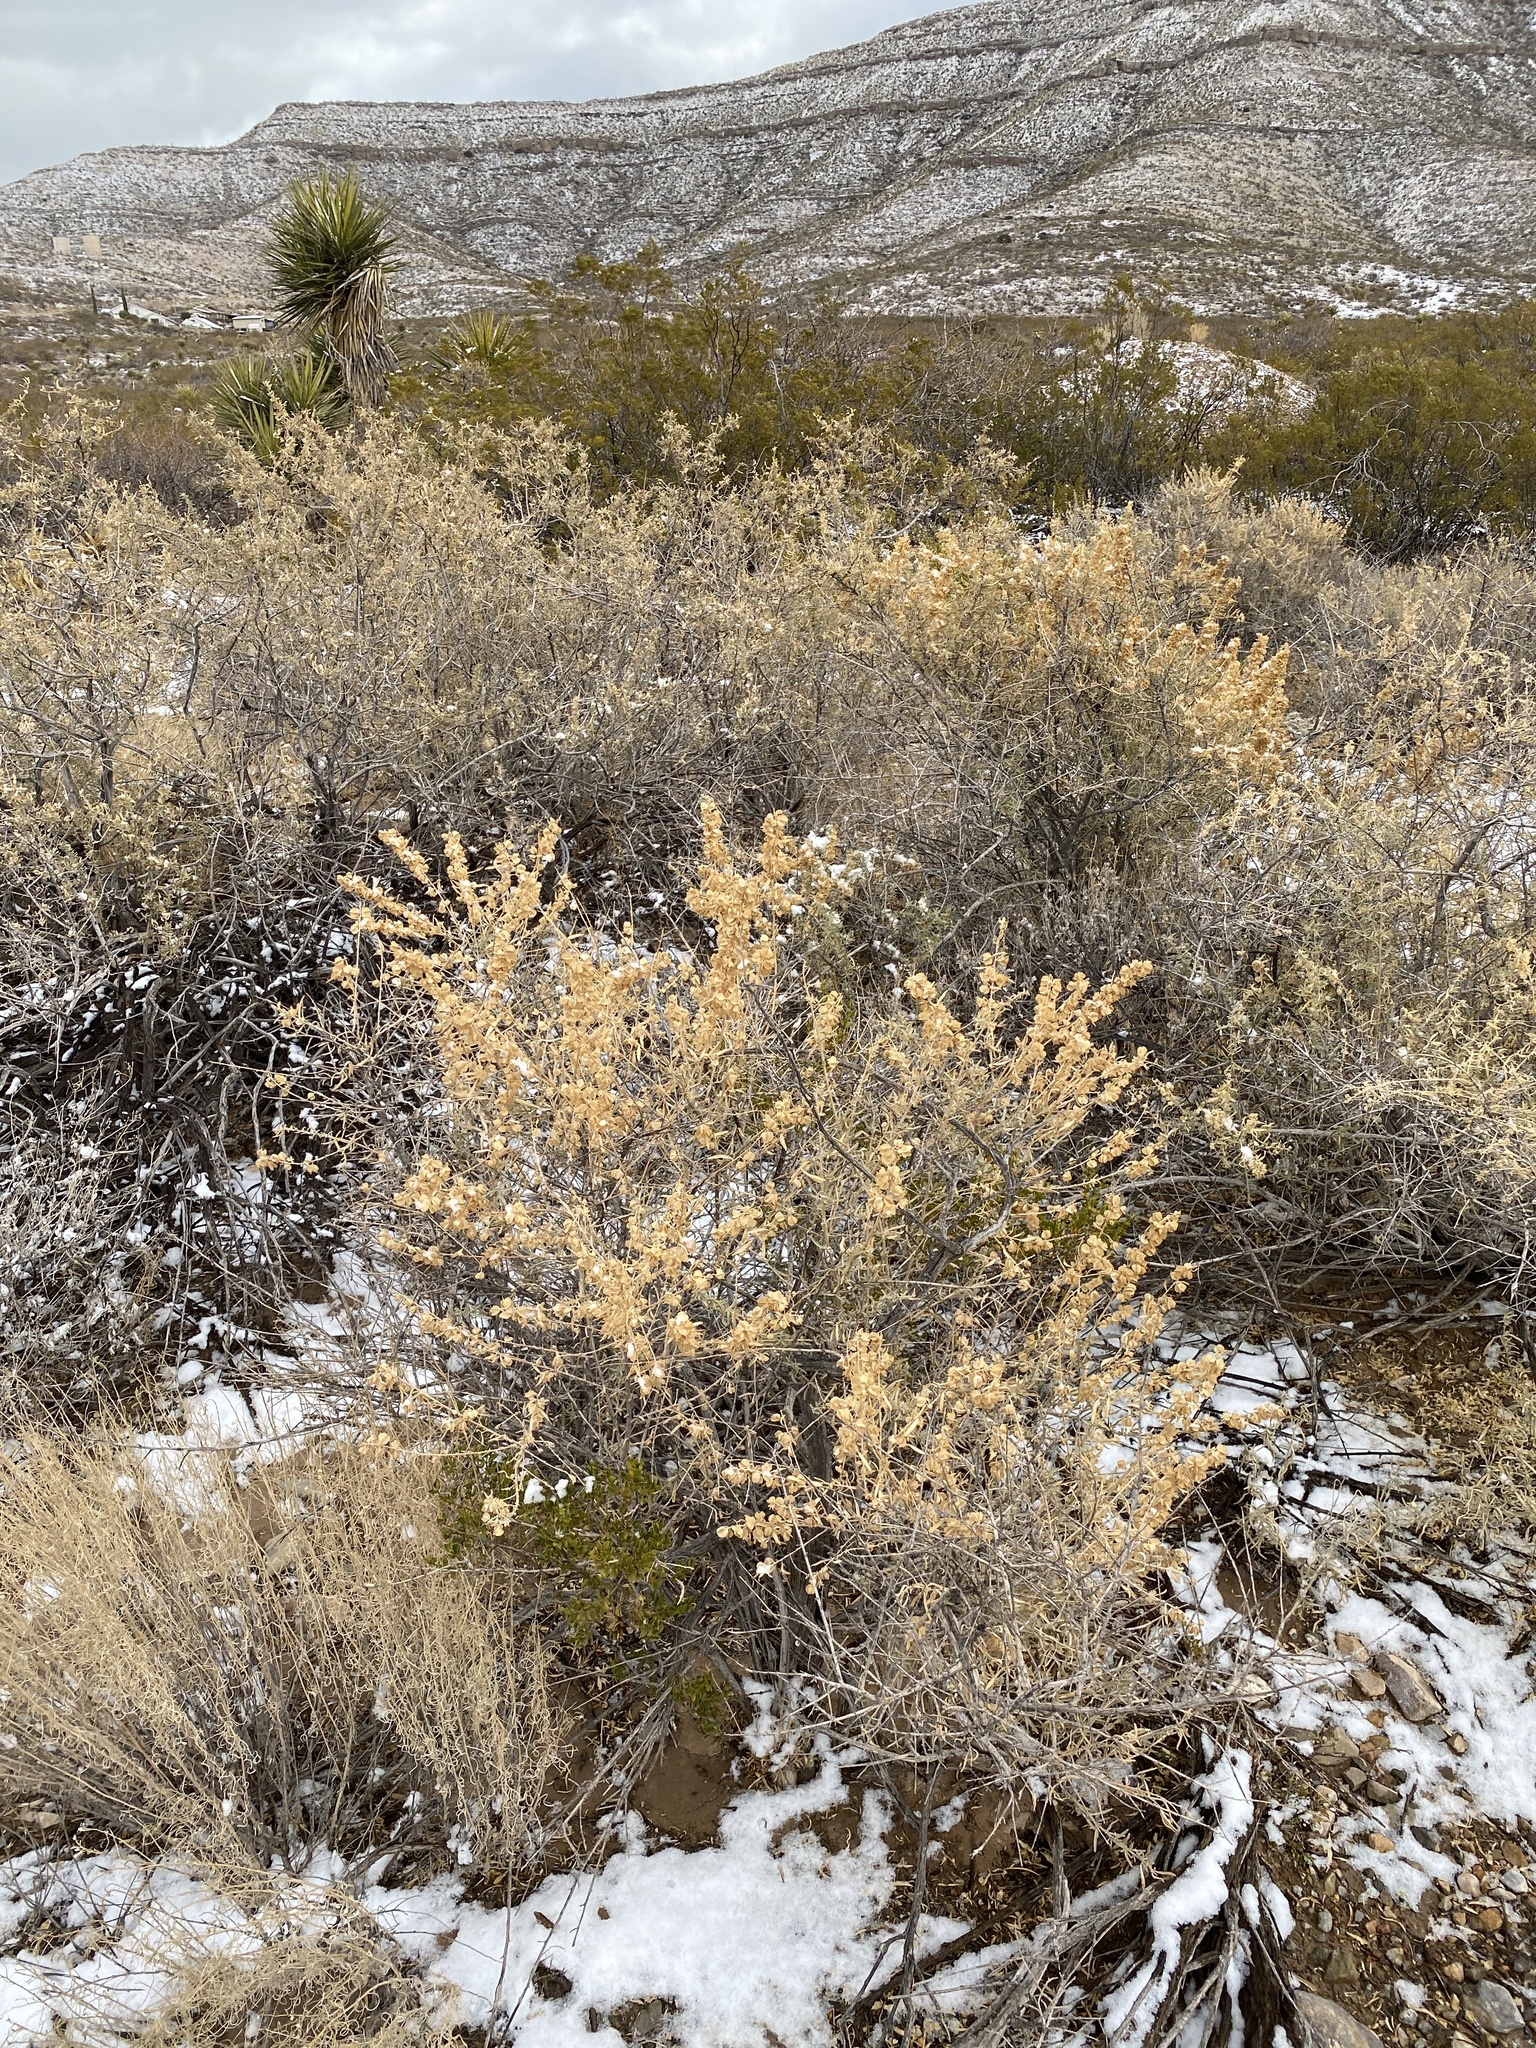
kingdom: Plantae
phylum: Tracheophyta
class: Magnoliopsida
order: Caryophyllales
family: Amaranthaceae
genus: Atriplex
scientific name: Atriplex canescens
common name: Four-wing saltbush
